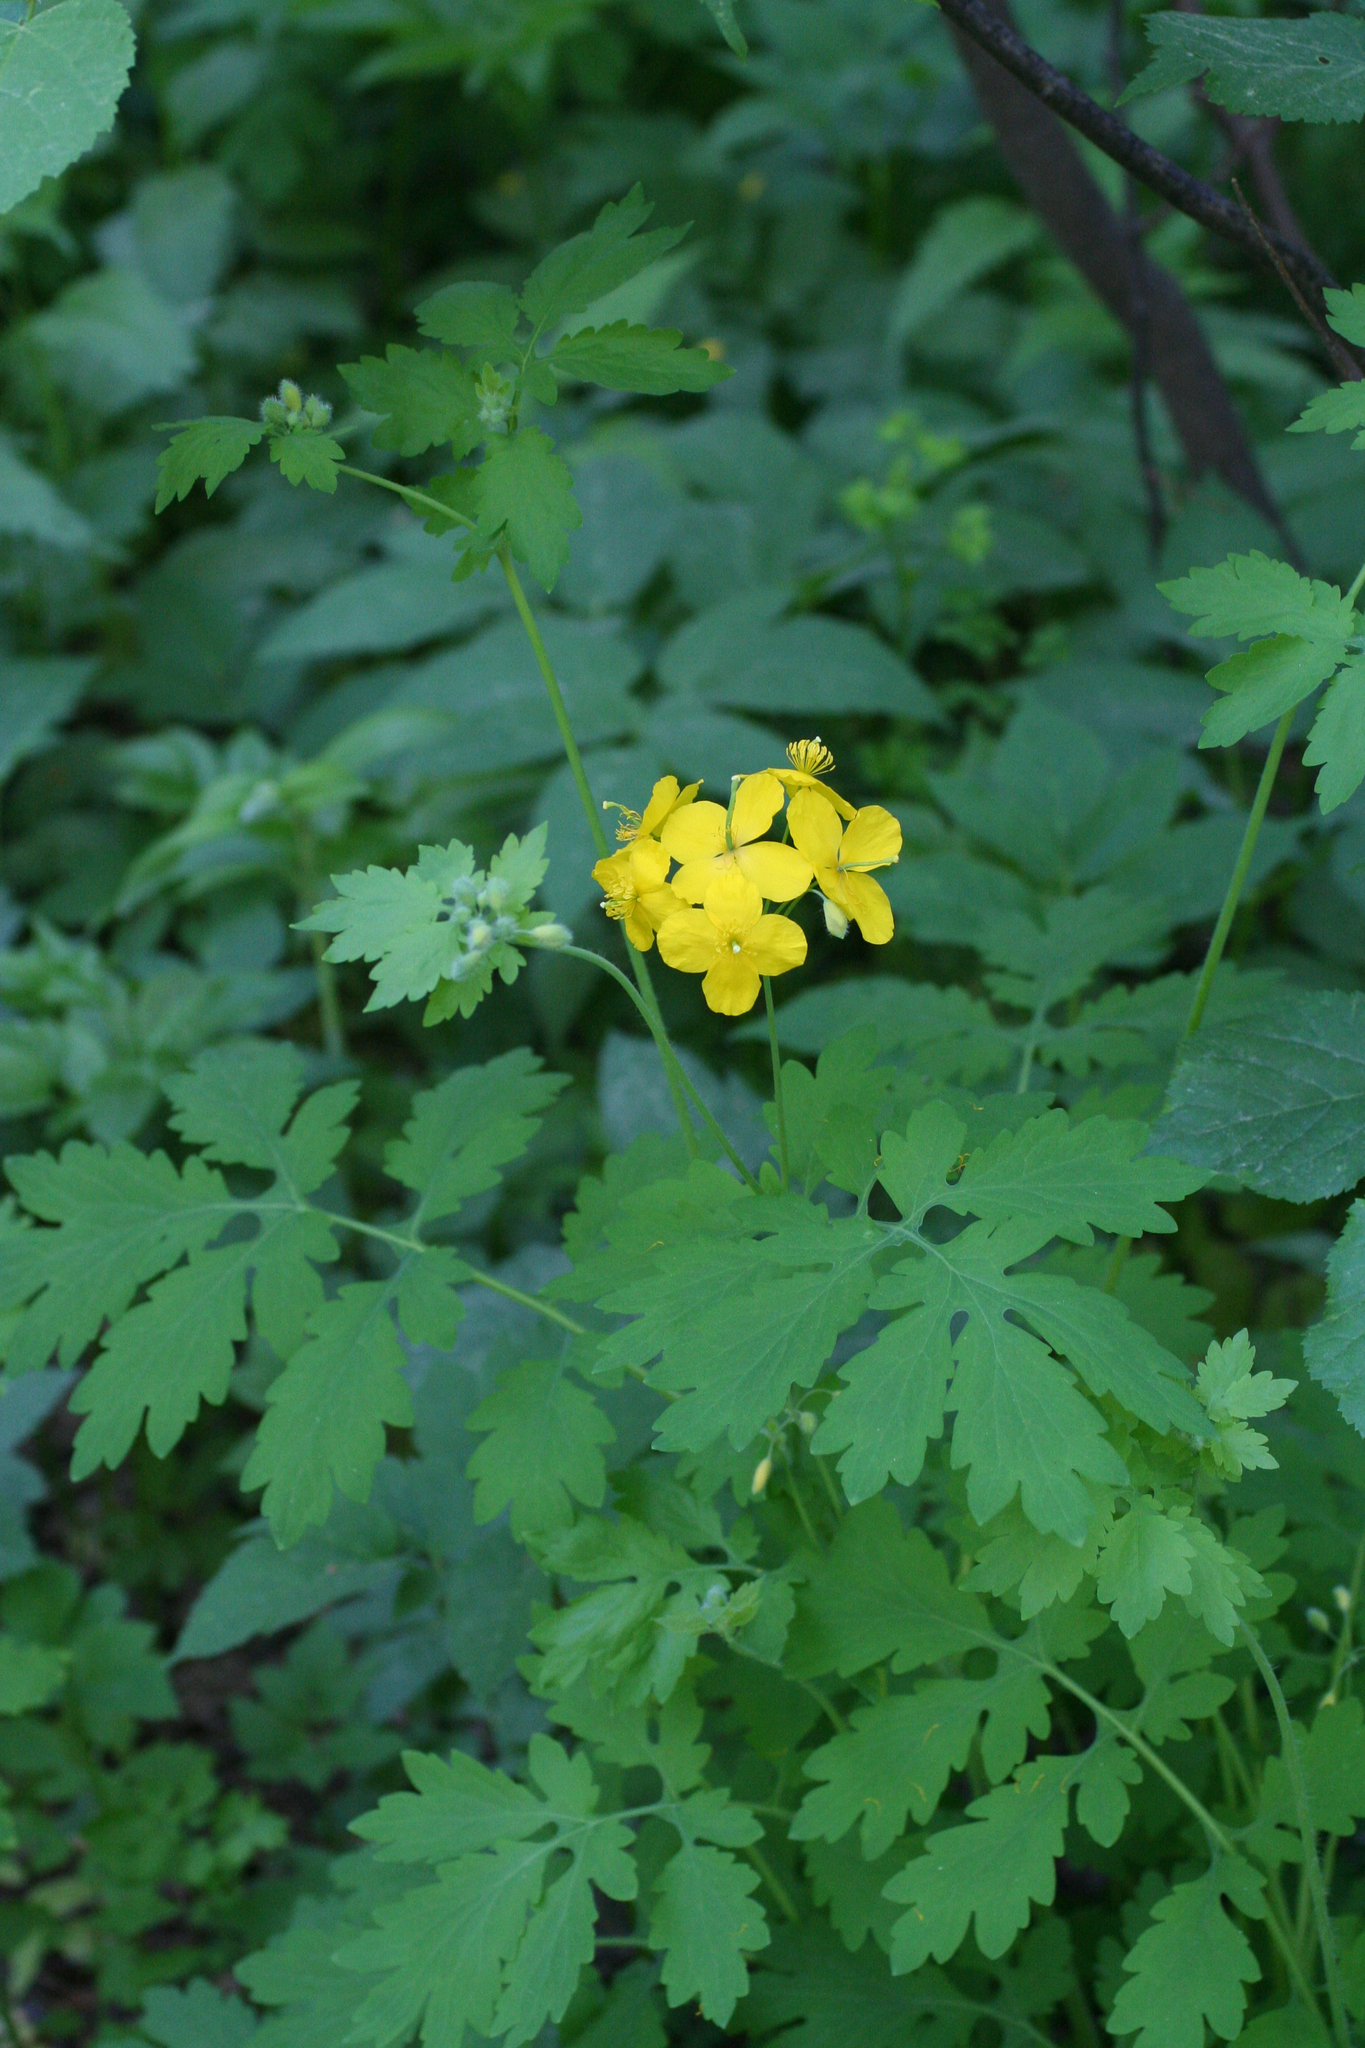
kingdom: Plantae
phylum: Tracheophyta
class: Magnoliopsida
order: Ranunculales
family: Papaveraceae
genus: Chelidonium
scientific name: Chelidonium majus
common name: Greater celandine
